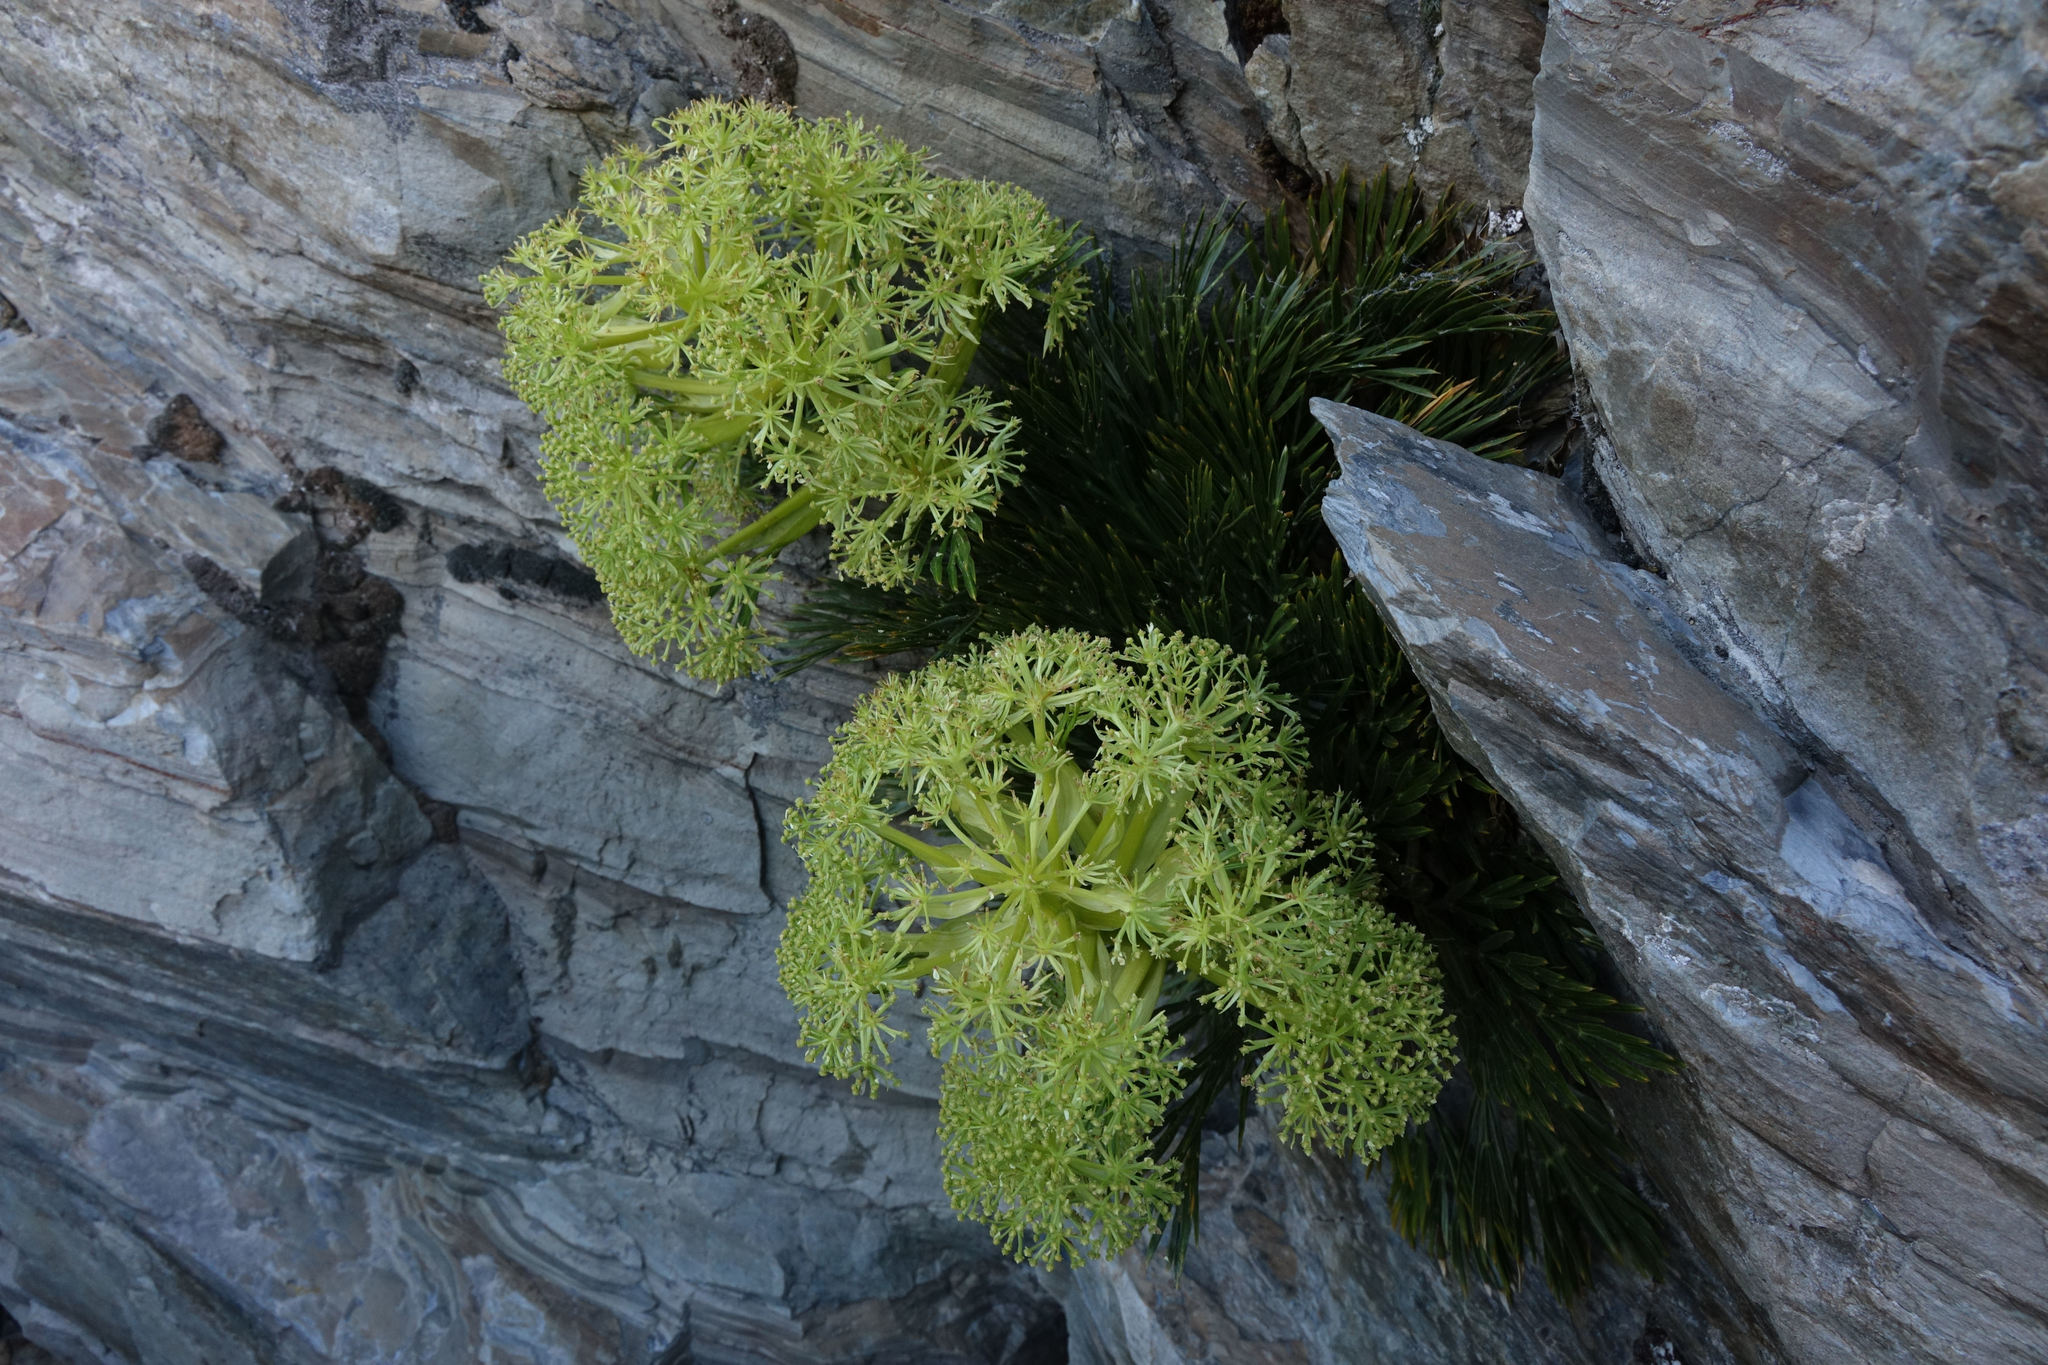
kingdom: Plantae
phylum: Tracheophyta
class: Magnoliopsida
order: Apiales
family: Apiaceae
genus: Aciphylla
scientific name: Aciphylla divisa
